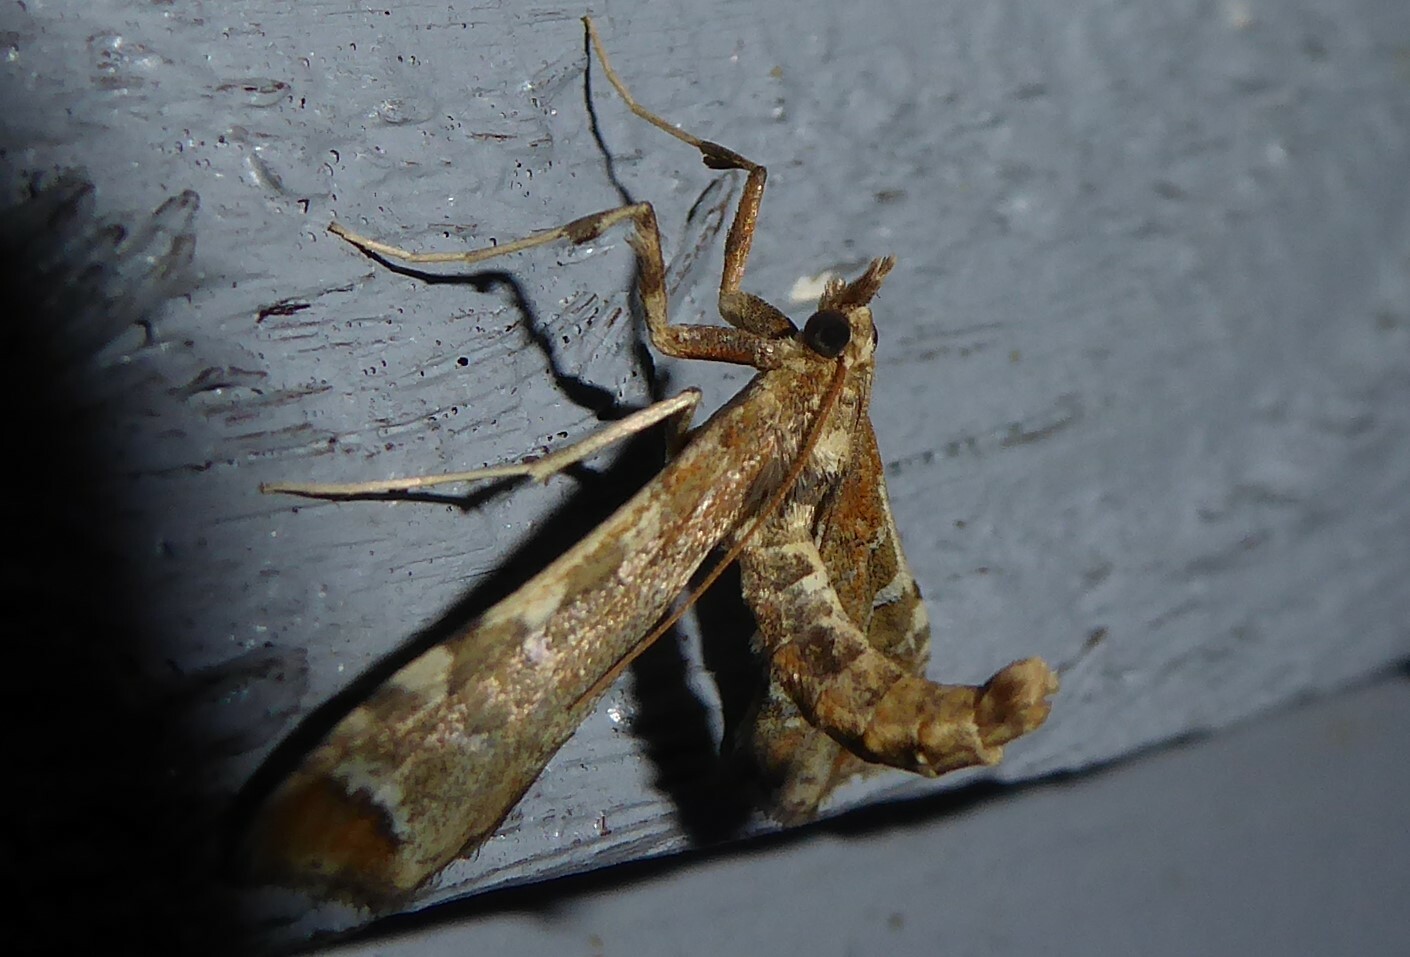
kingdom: Animalia
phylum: Arthropoda
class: Insecta
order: Lepidoptera
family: Crambidae
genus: Sceliodes
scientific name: Sceliodes cordalis
